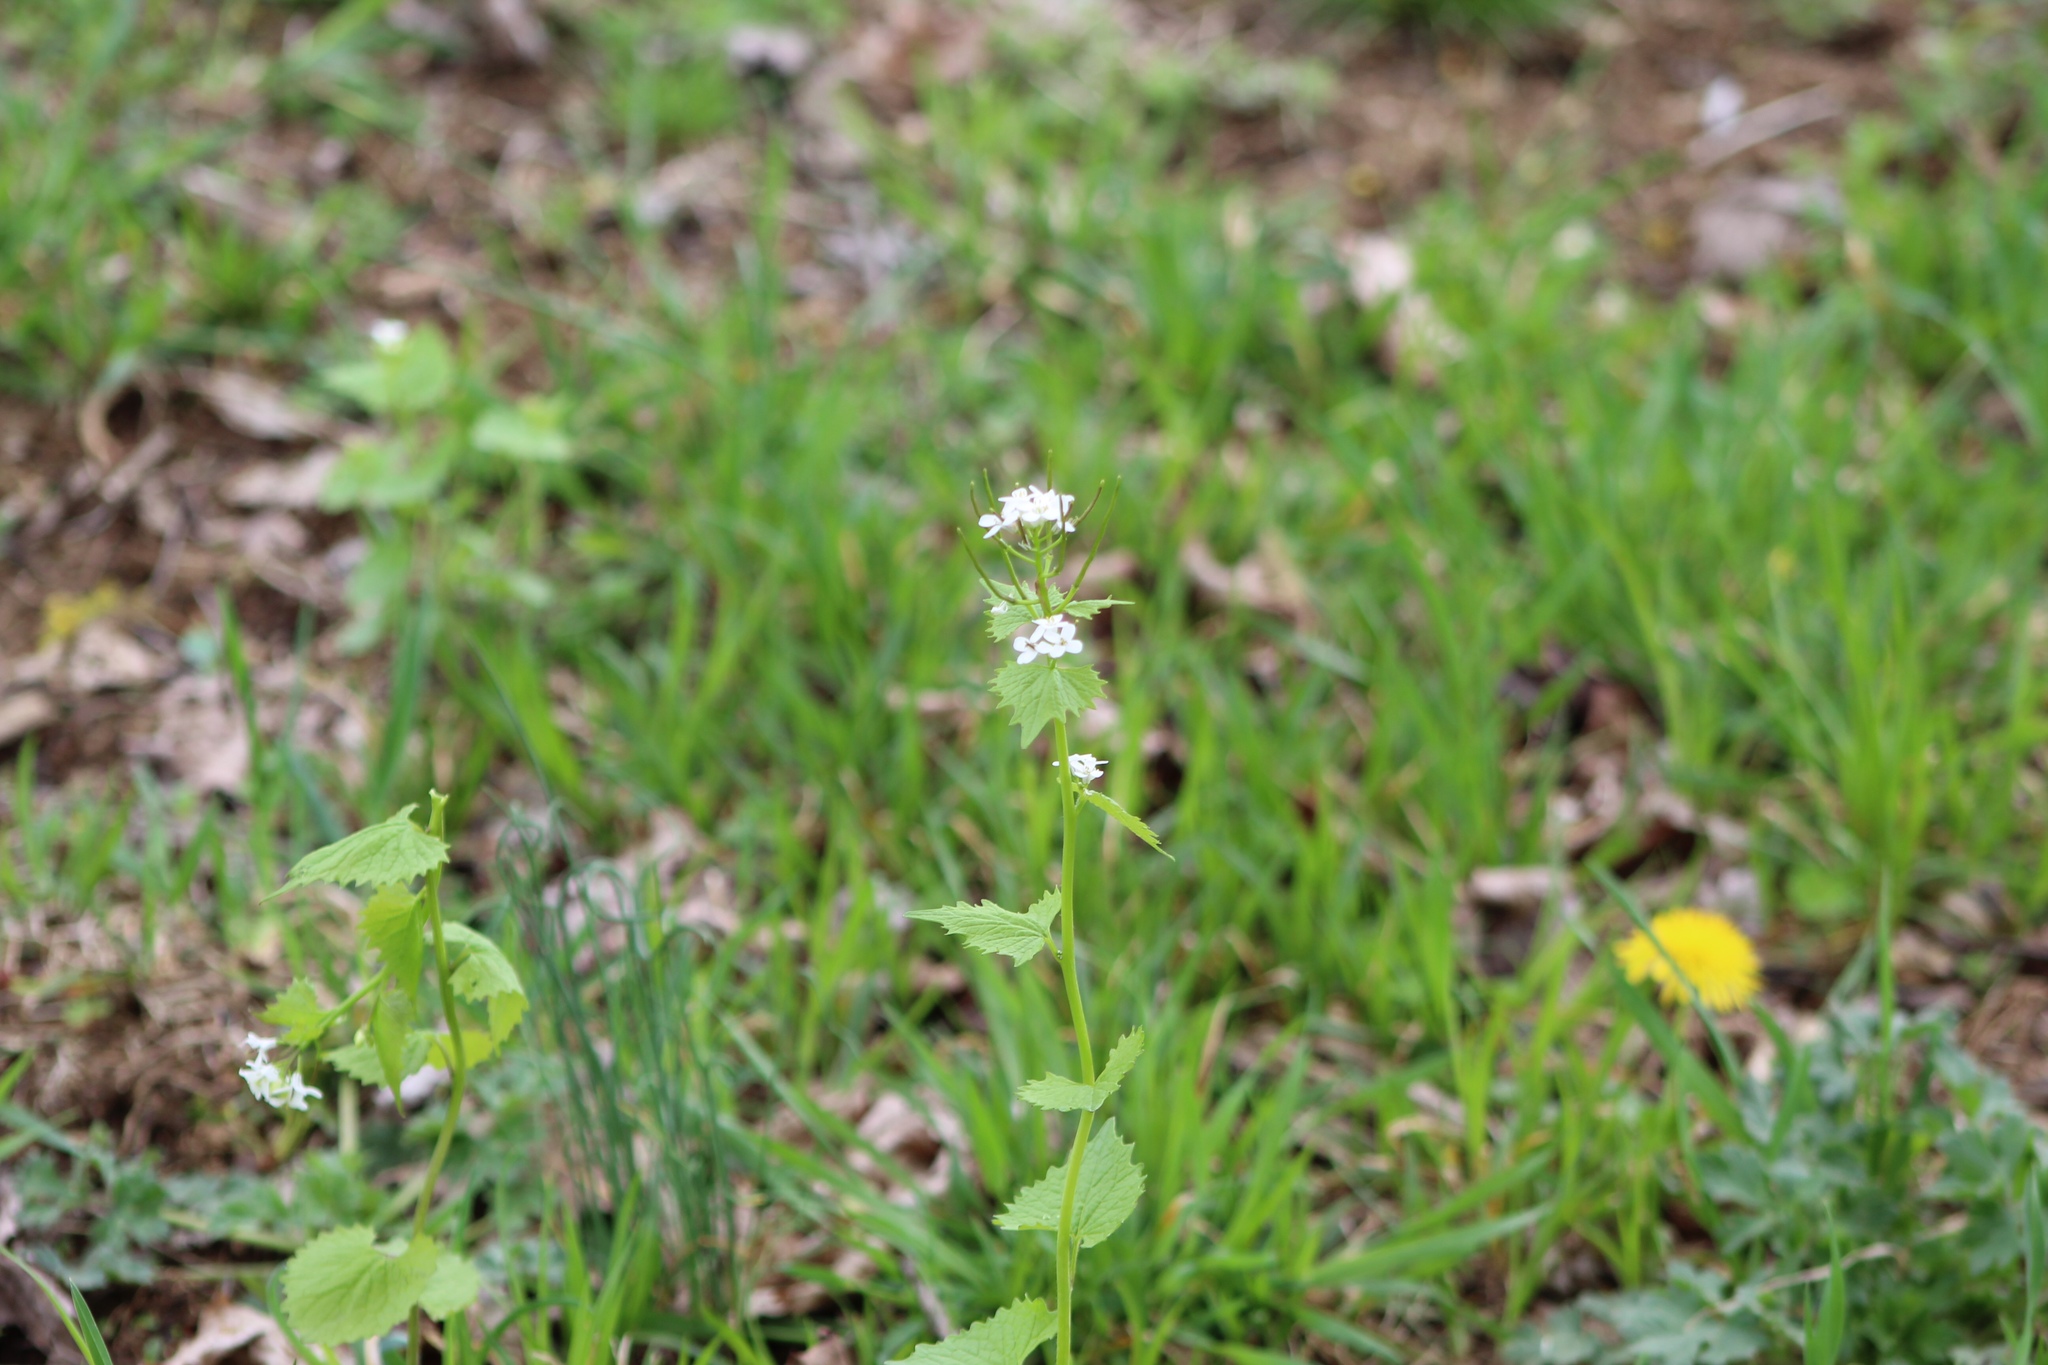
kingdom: Plantae
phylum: Tracheophyta
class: Magnoliopsida
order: Brassicales
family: Brassicaceae
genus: Alliaria
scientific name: Alliaria petiolata
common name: Garlic mustard
